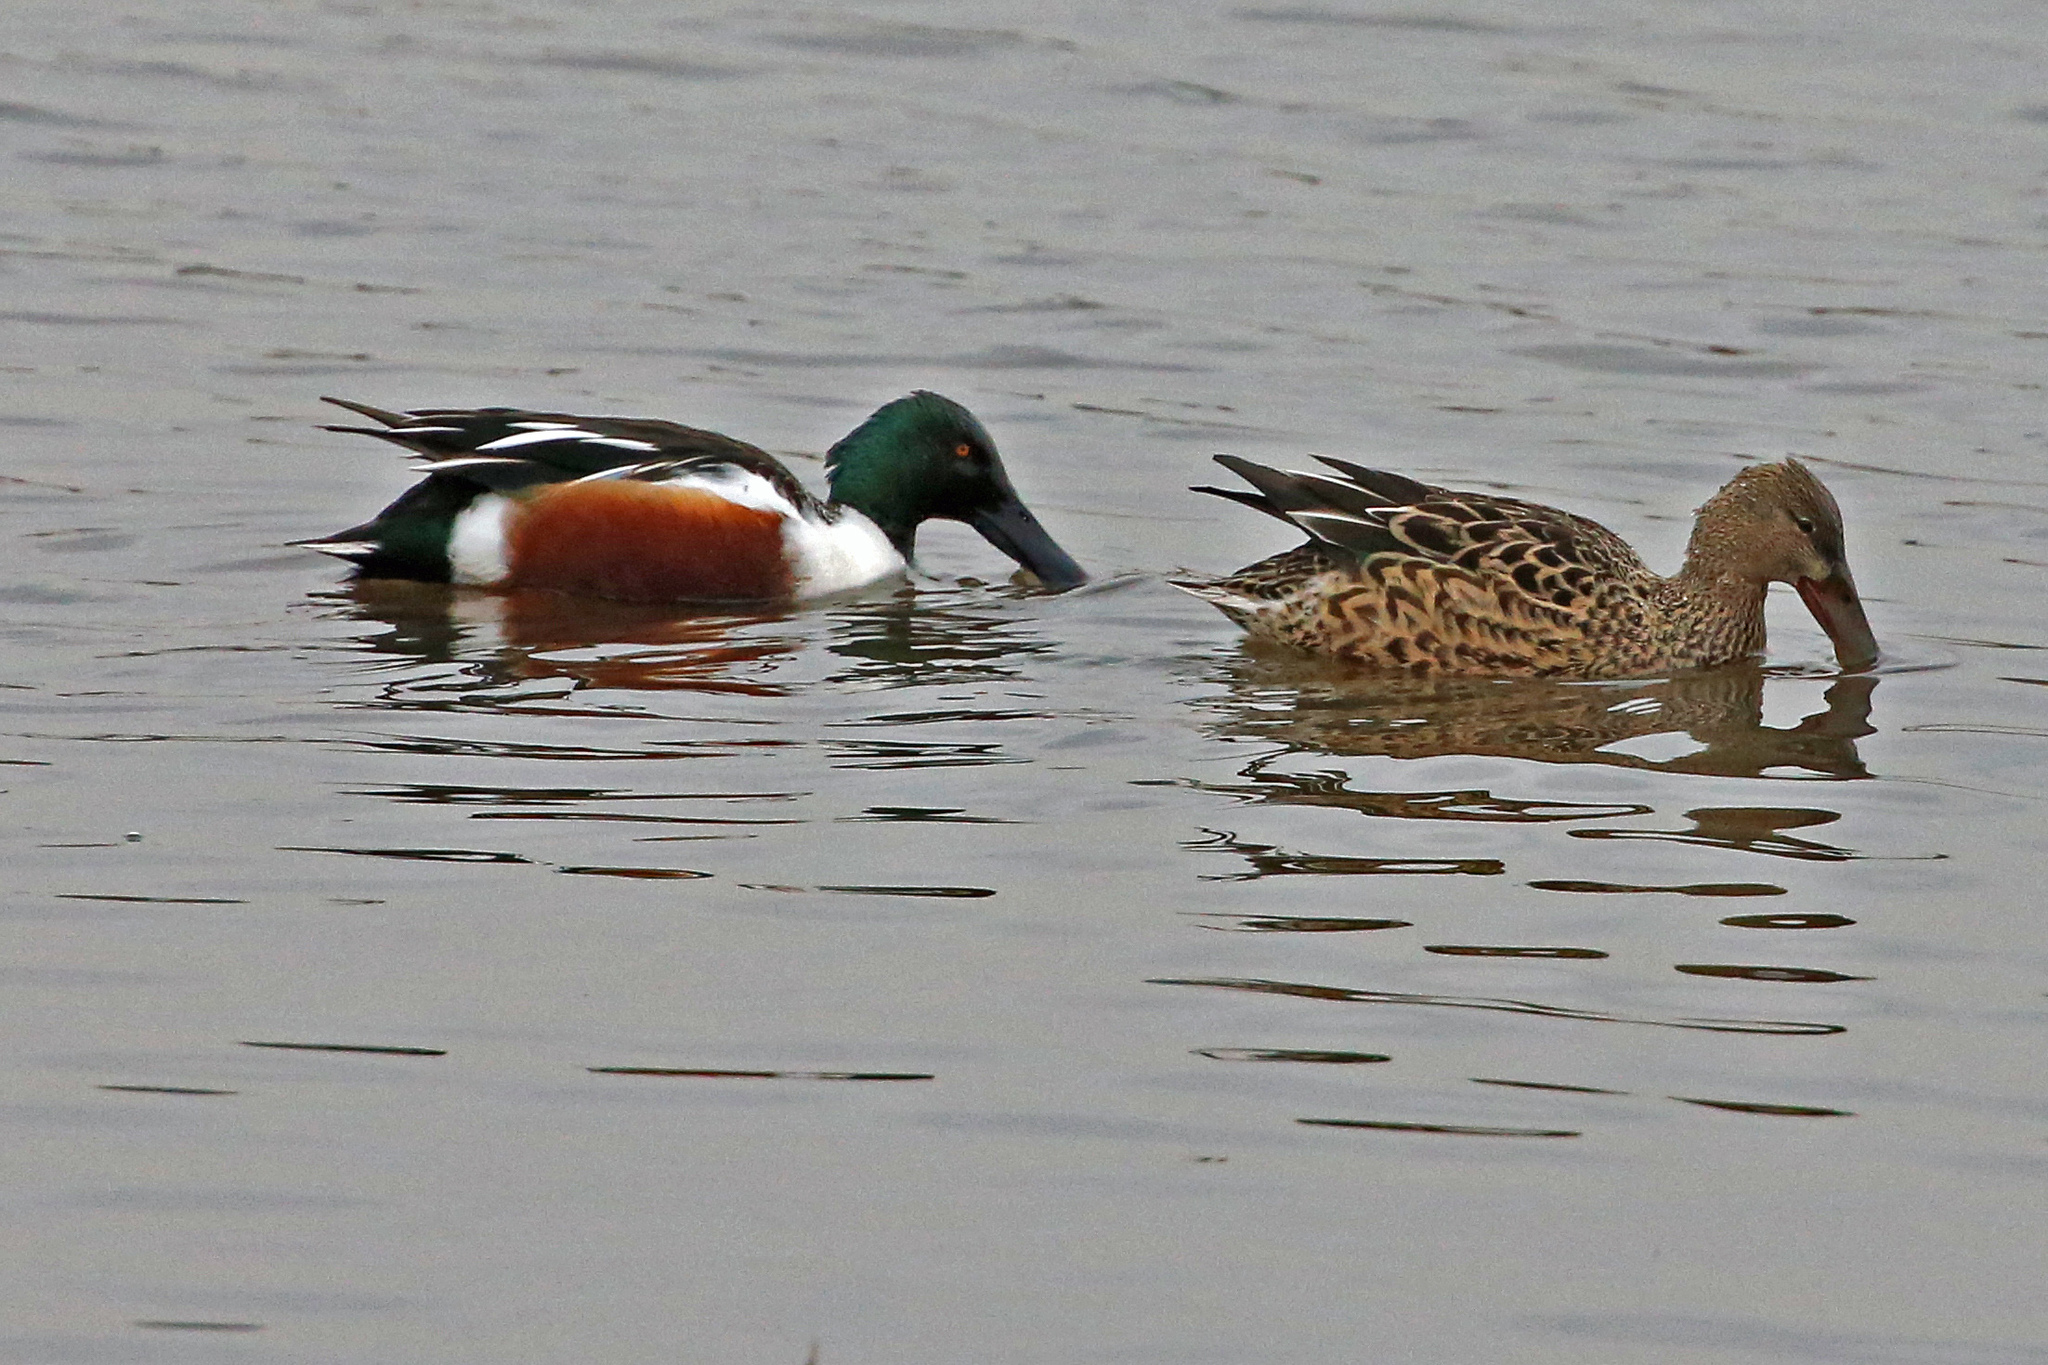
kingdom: Animalia
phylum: Chordata
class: Aves
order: Anseriformes
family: Anatidae
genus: Spatula
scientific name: Spatula clypeata
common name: Northern shoveler
